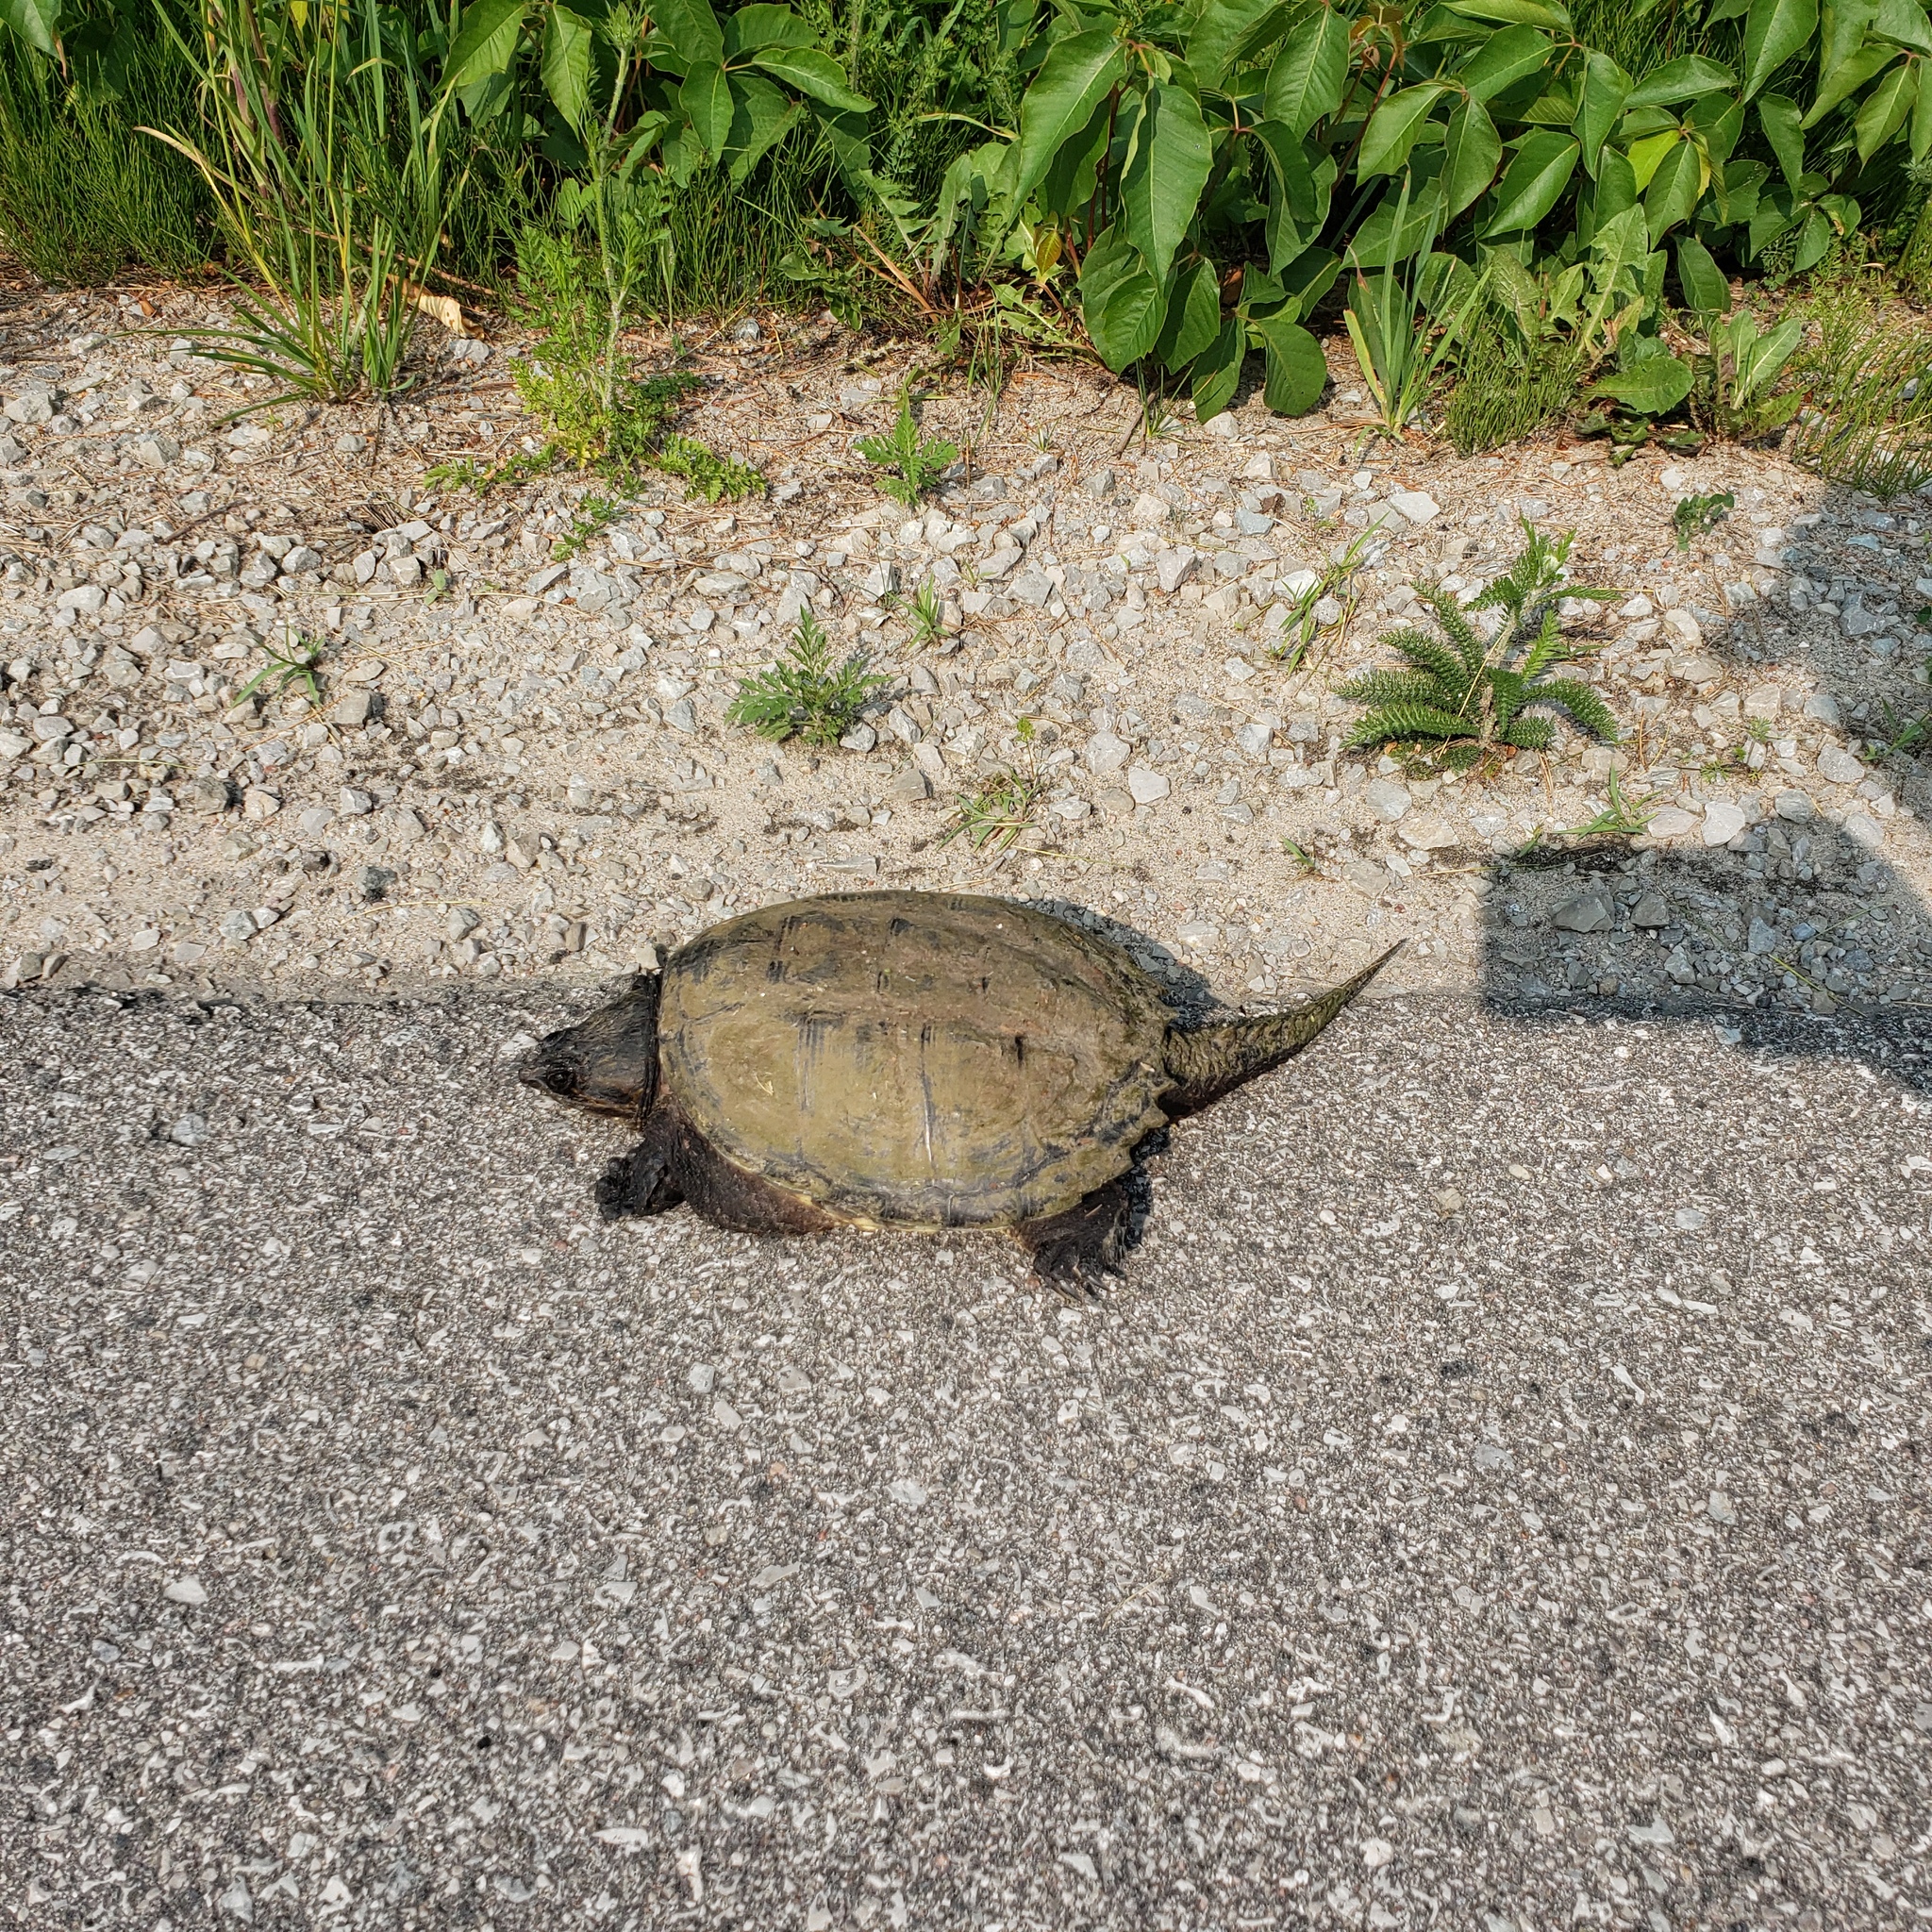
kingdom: Animalia
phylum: Chordata
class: Testudines
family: Chelydridae
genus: Chelydra
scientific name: Chelydra serpentina
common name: Common snapping turtle
